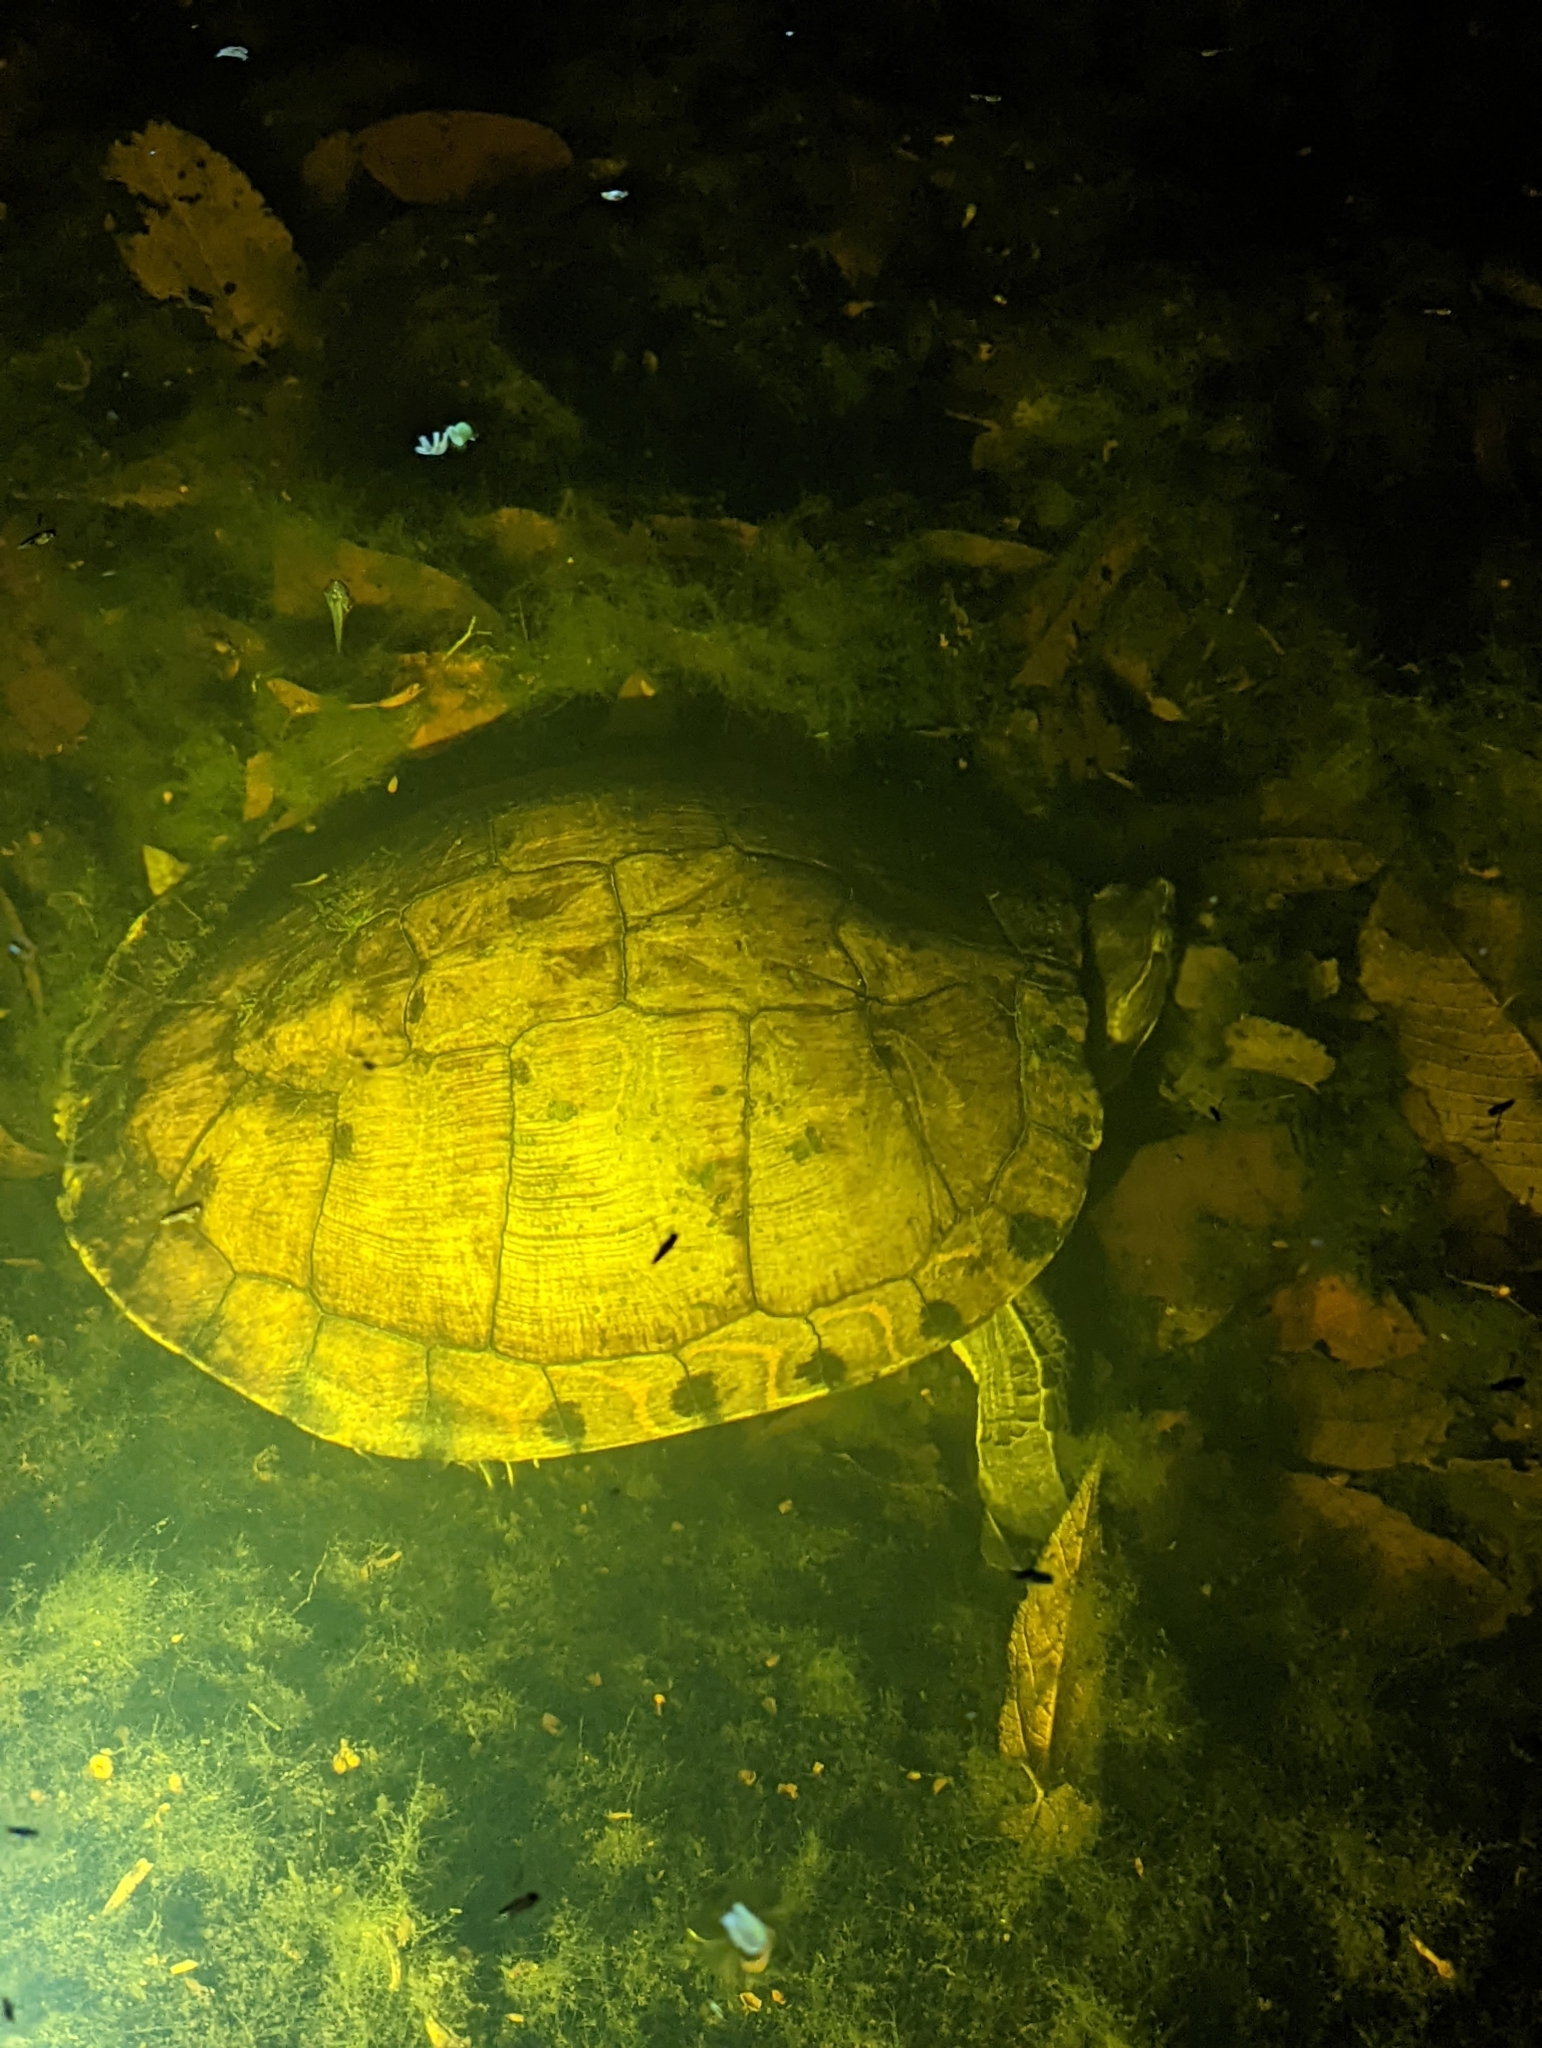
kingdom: Animalia
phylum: Chordata
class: Testudines
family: Emydidae
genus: Trachemys
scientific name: Trachemys venusta
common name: Mesoamerican slider
